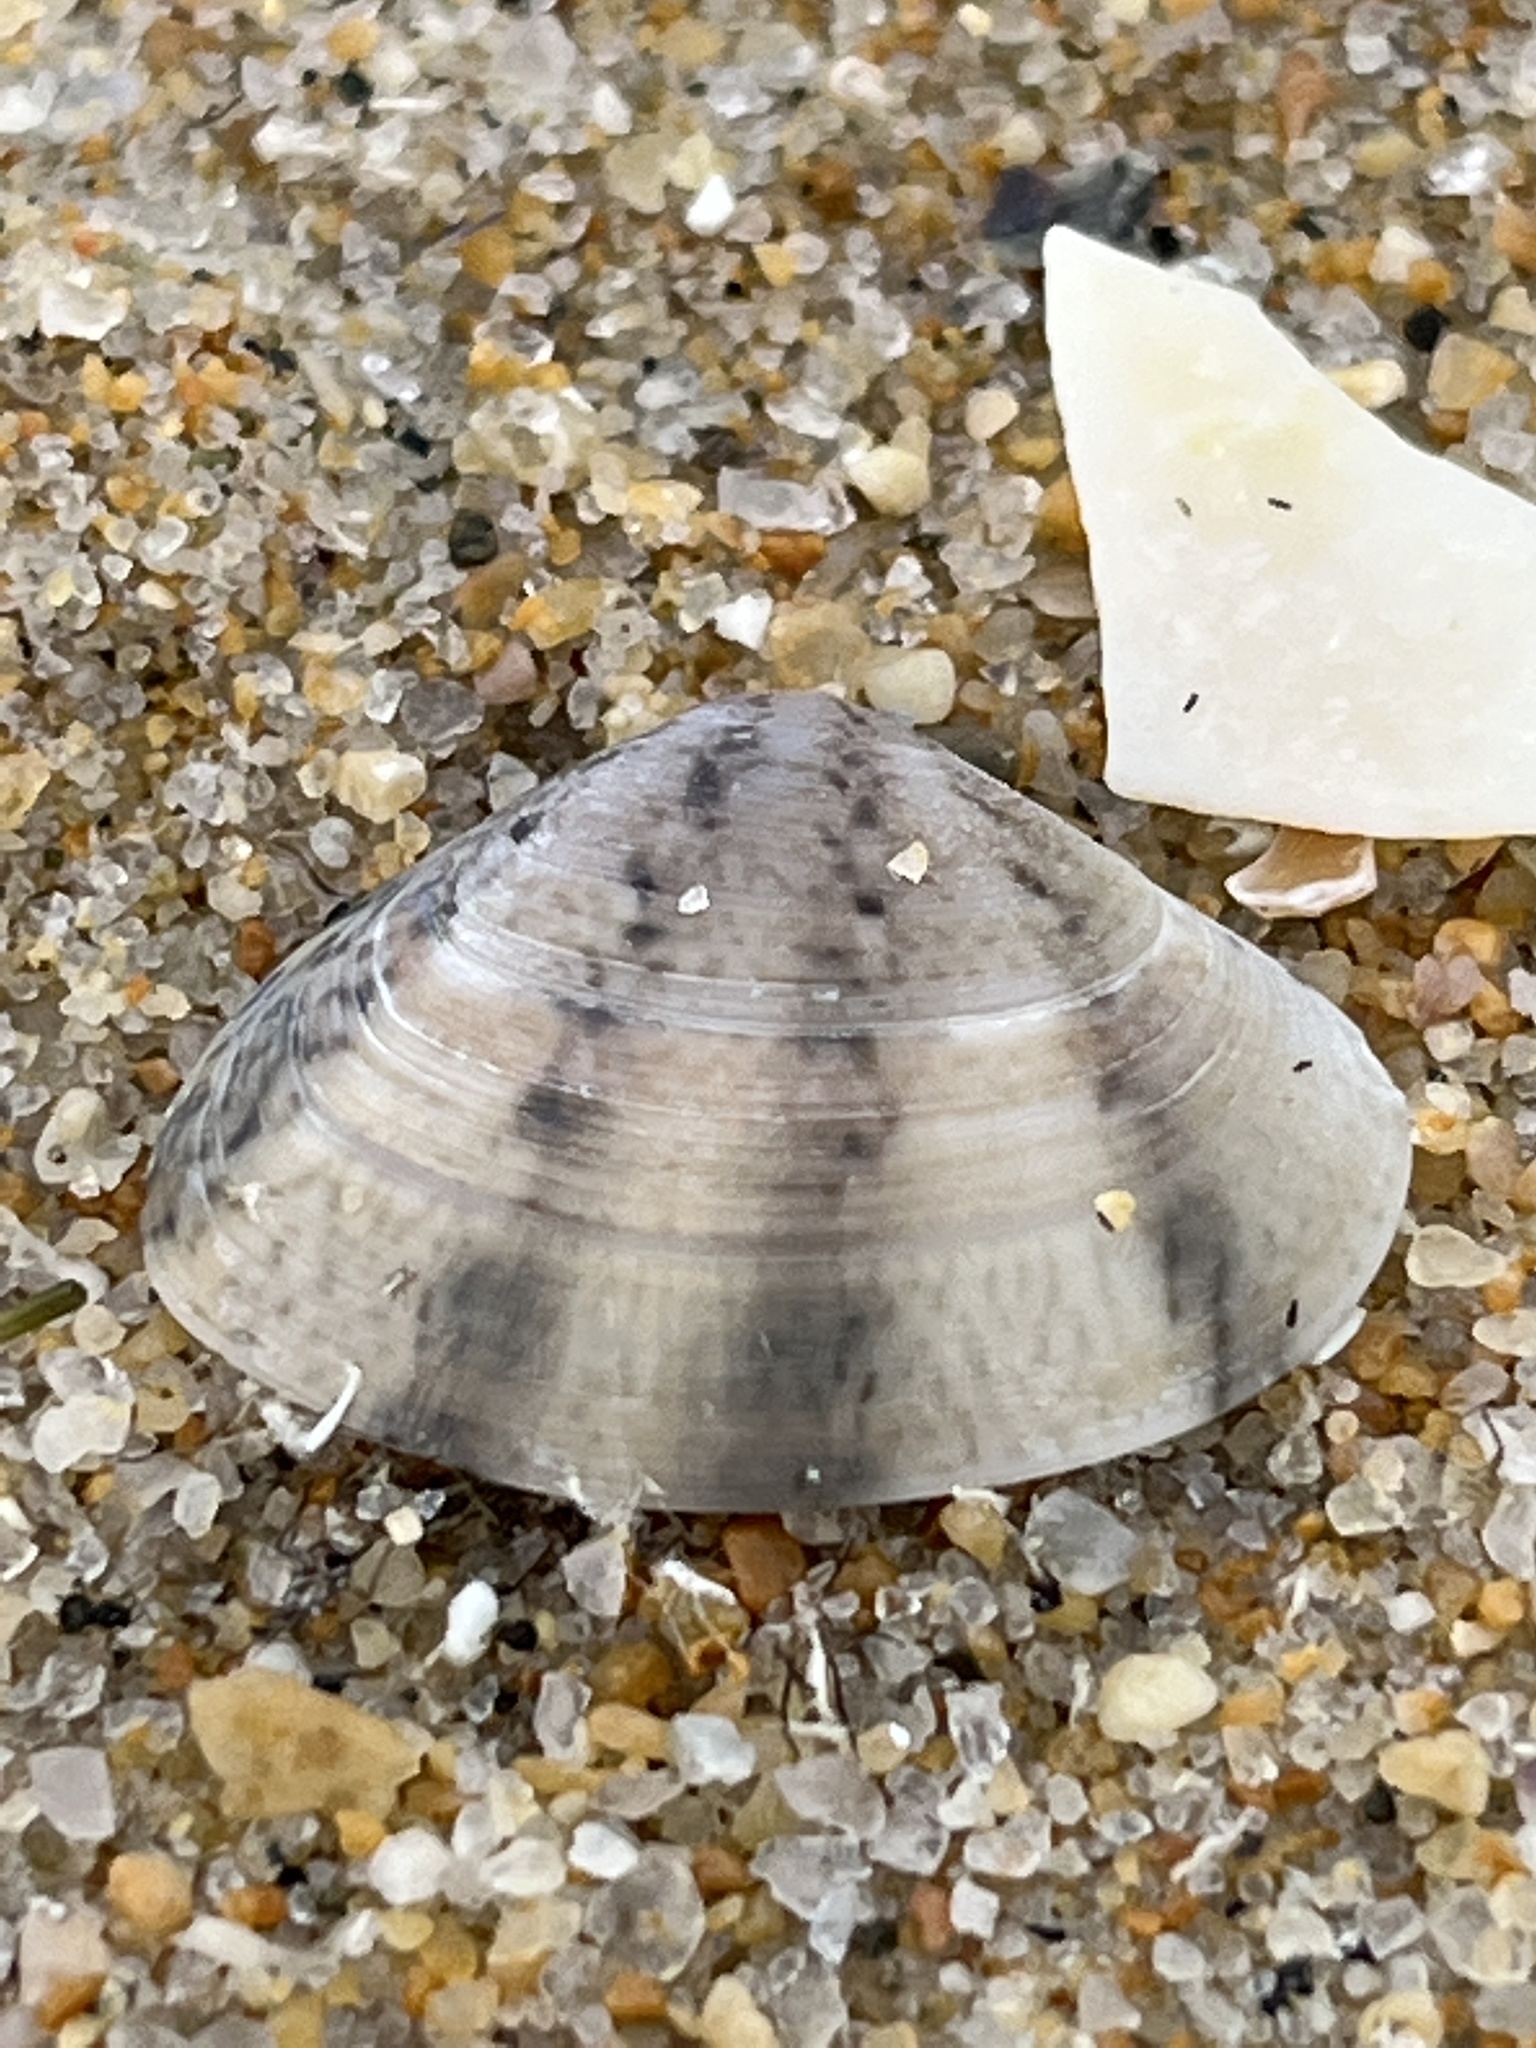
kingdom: Animalia
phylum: Mollusca
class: Bivalvia
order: Venerida
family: Veneridae
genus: Macridiscus
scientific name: Macridiscus aequilatera
